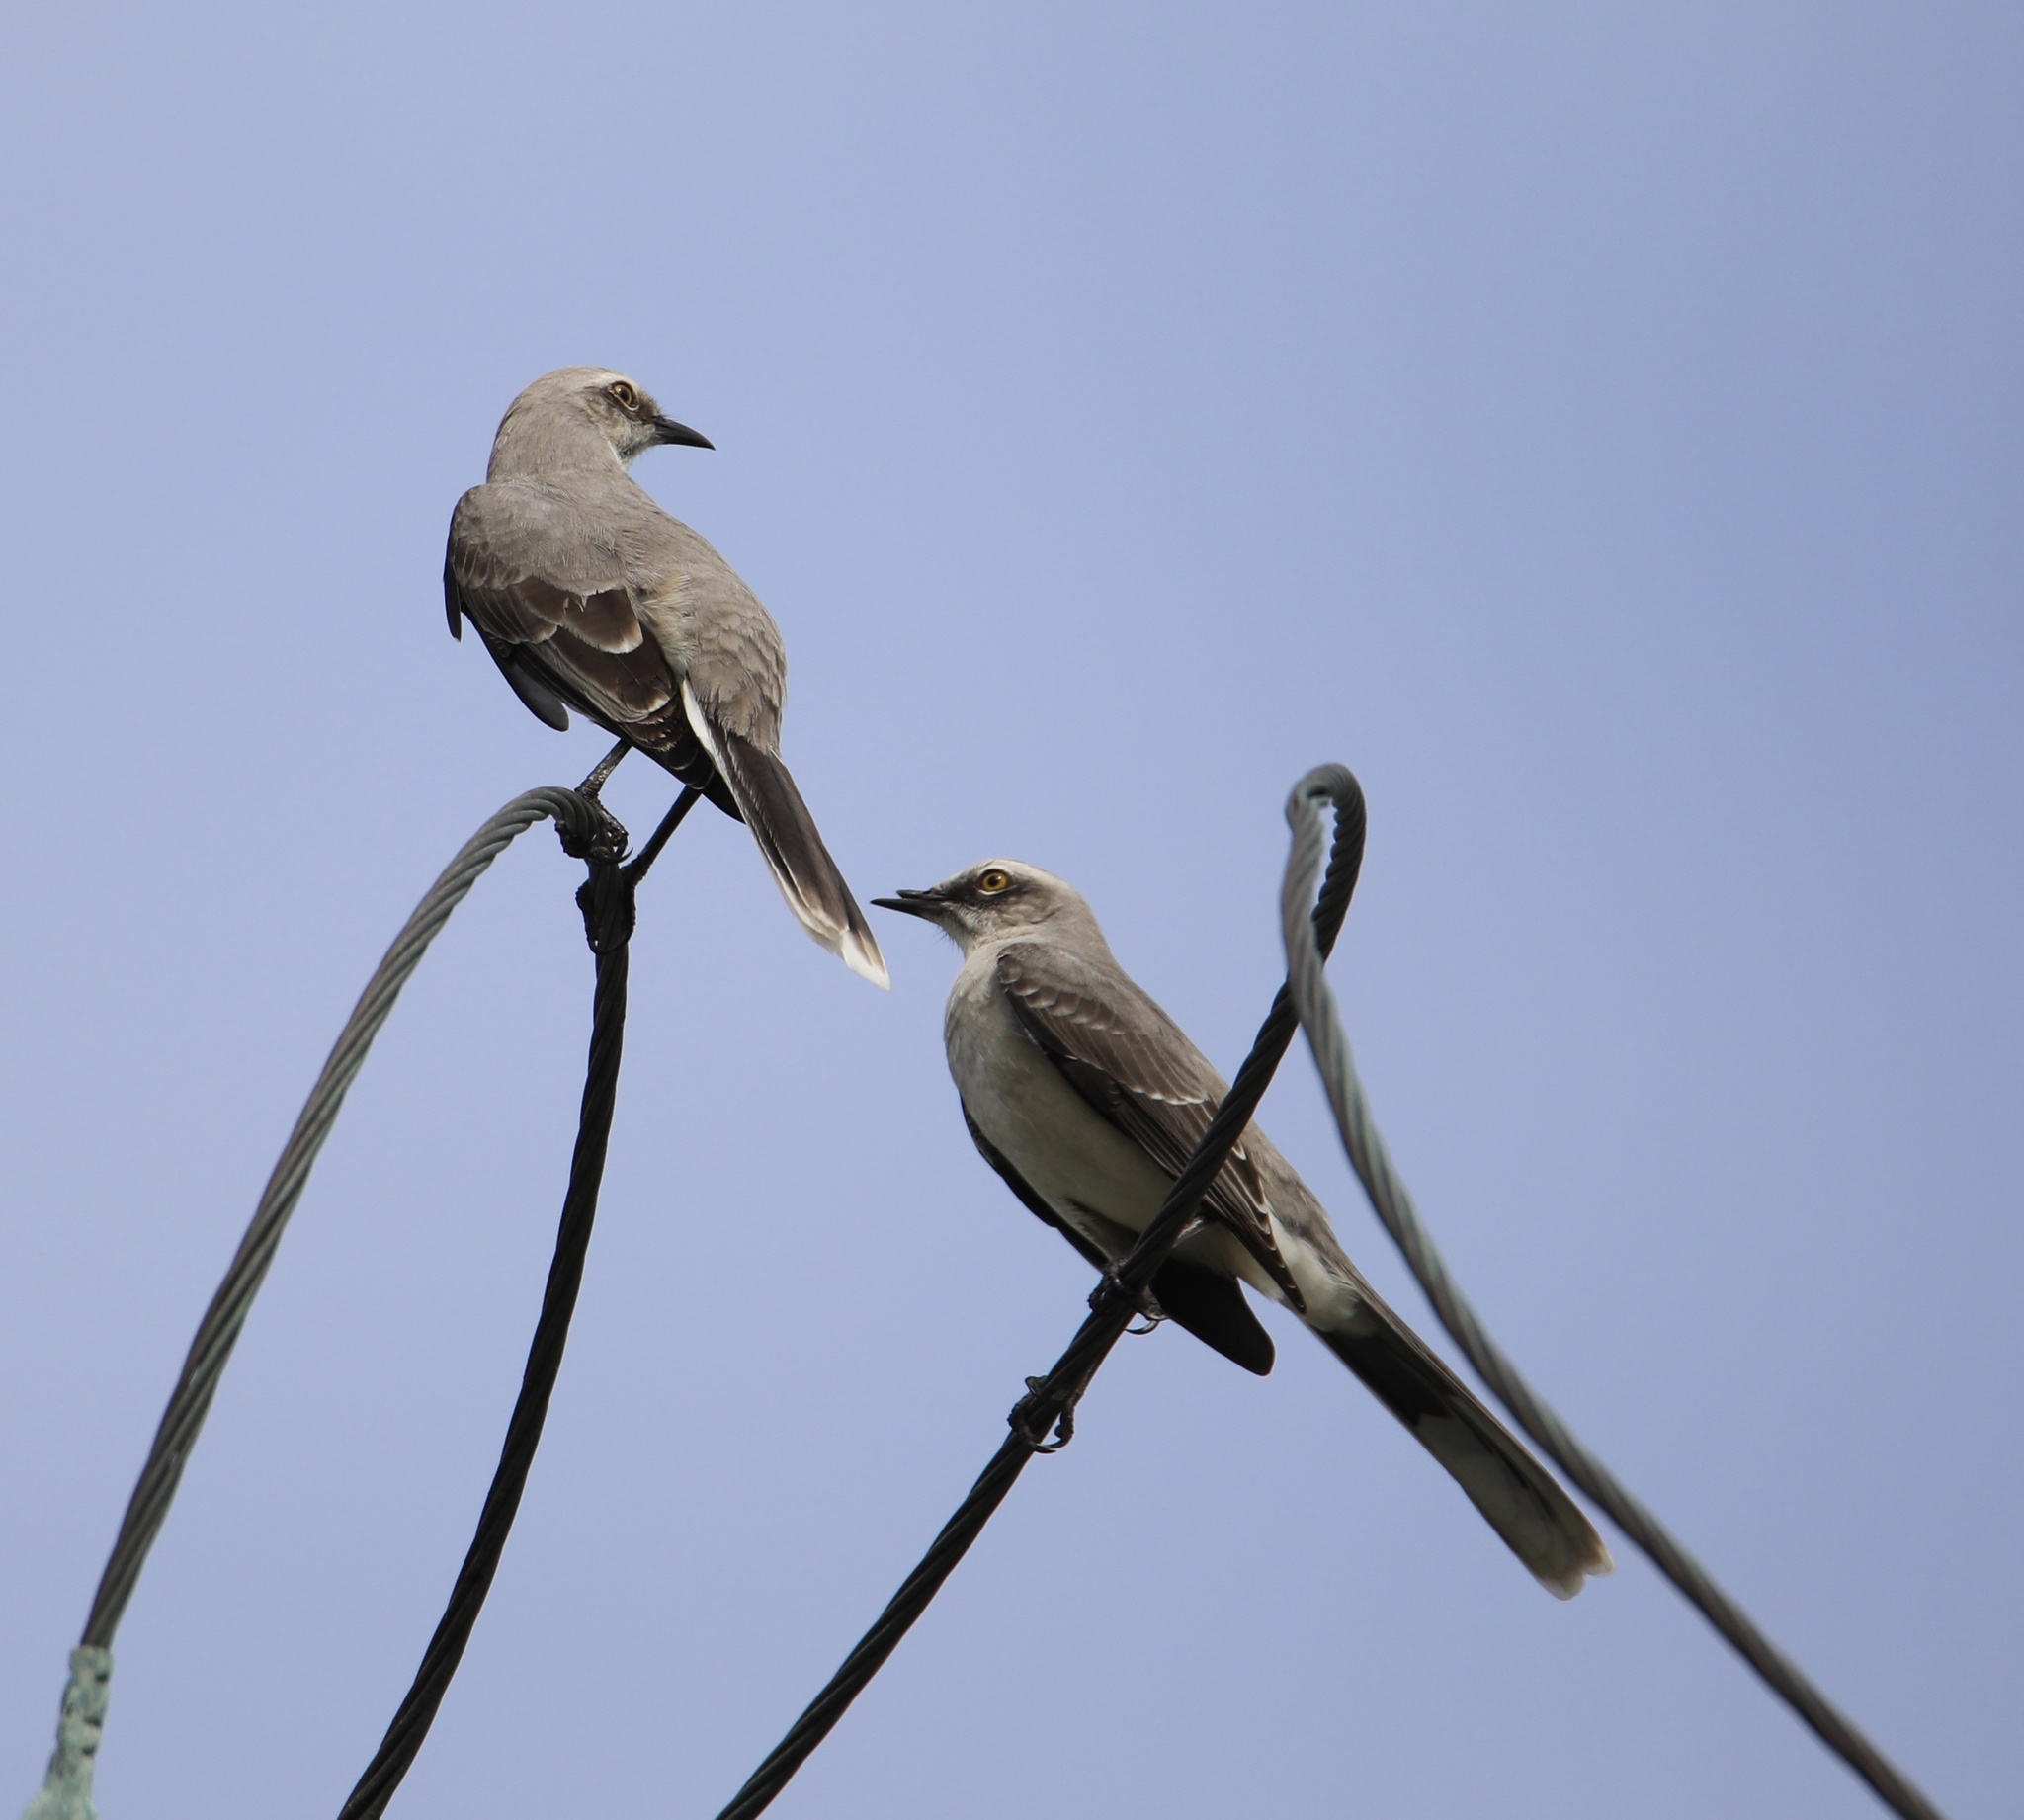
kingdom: Animalia
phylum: Chordata
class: Aves
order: Passeriformes
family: Mimidae
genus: Mimus
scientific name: Mimus gilvus
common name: Tropical mockingbird
